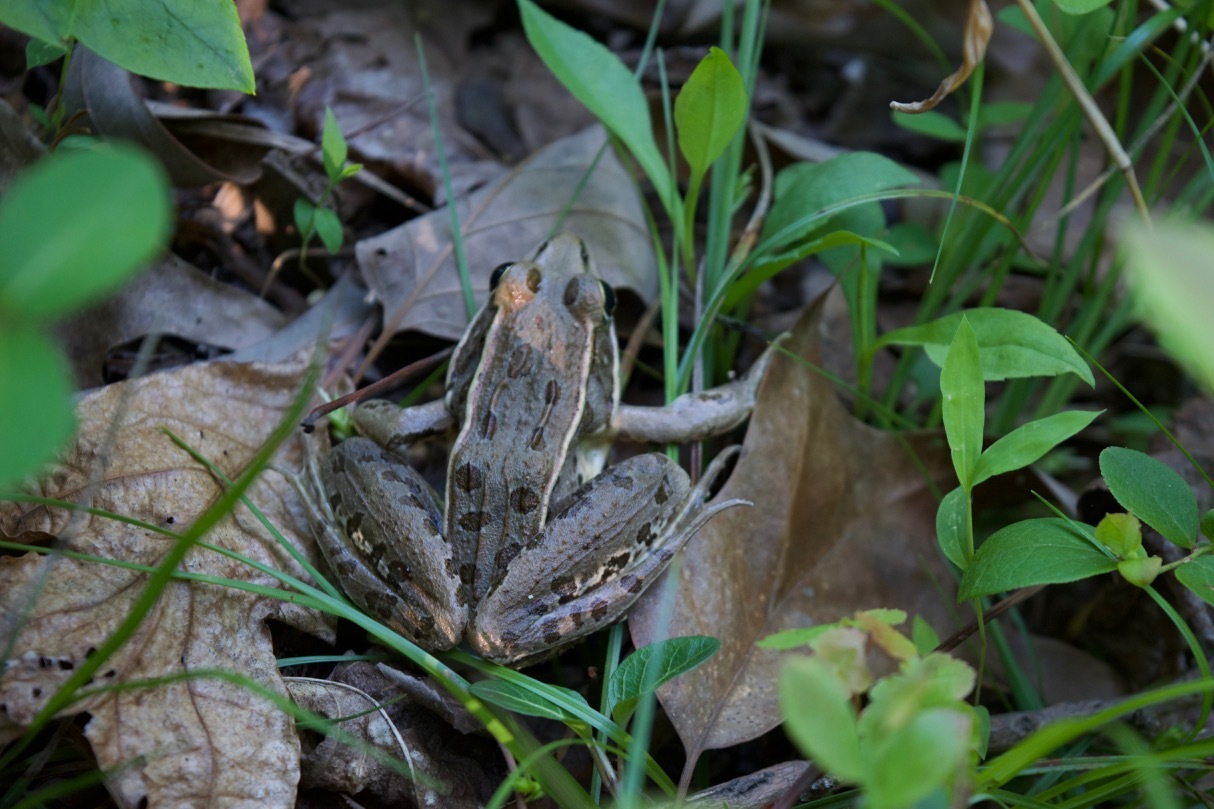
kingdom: Animalia
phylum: Chordata
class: Amphibia
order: Anura
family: Ranidae
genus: Lithobates
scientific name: Lithobates sphenocephalus
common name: Southern leopard frog
